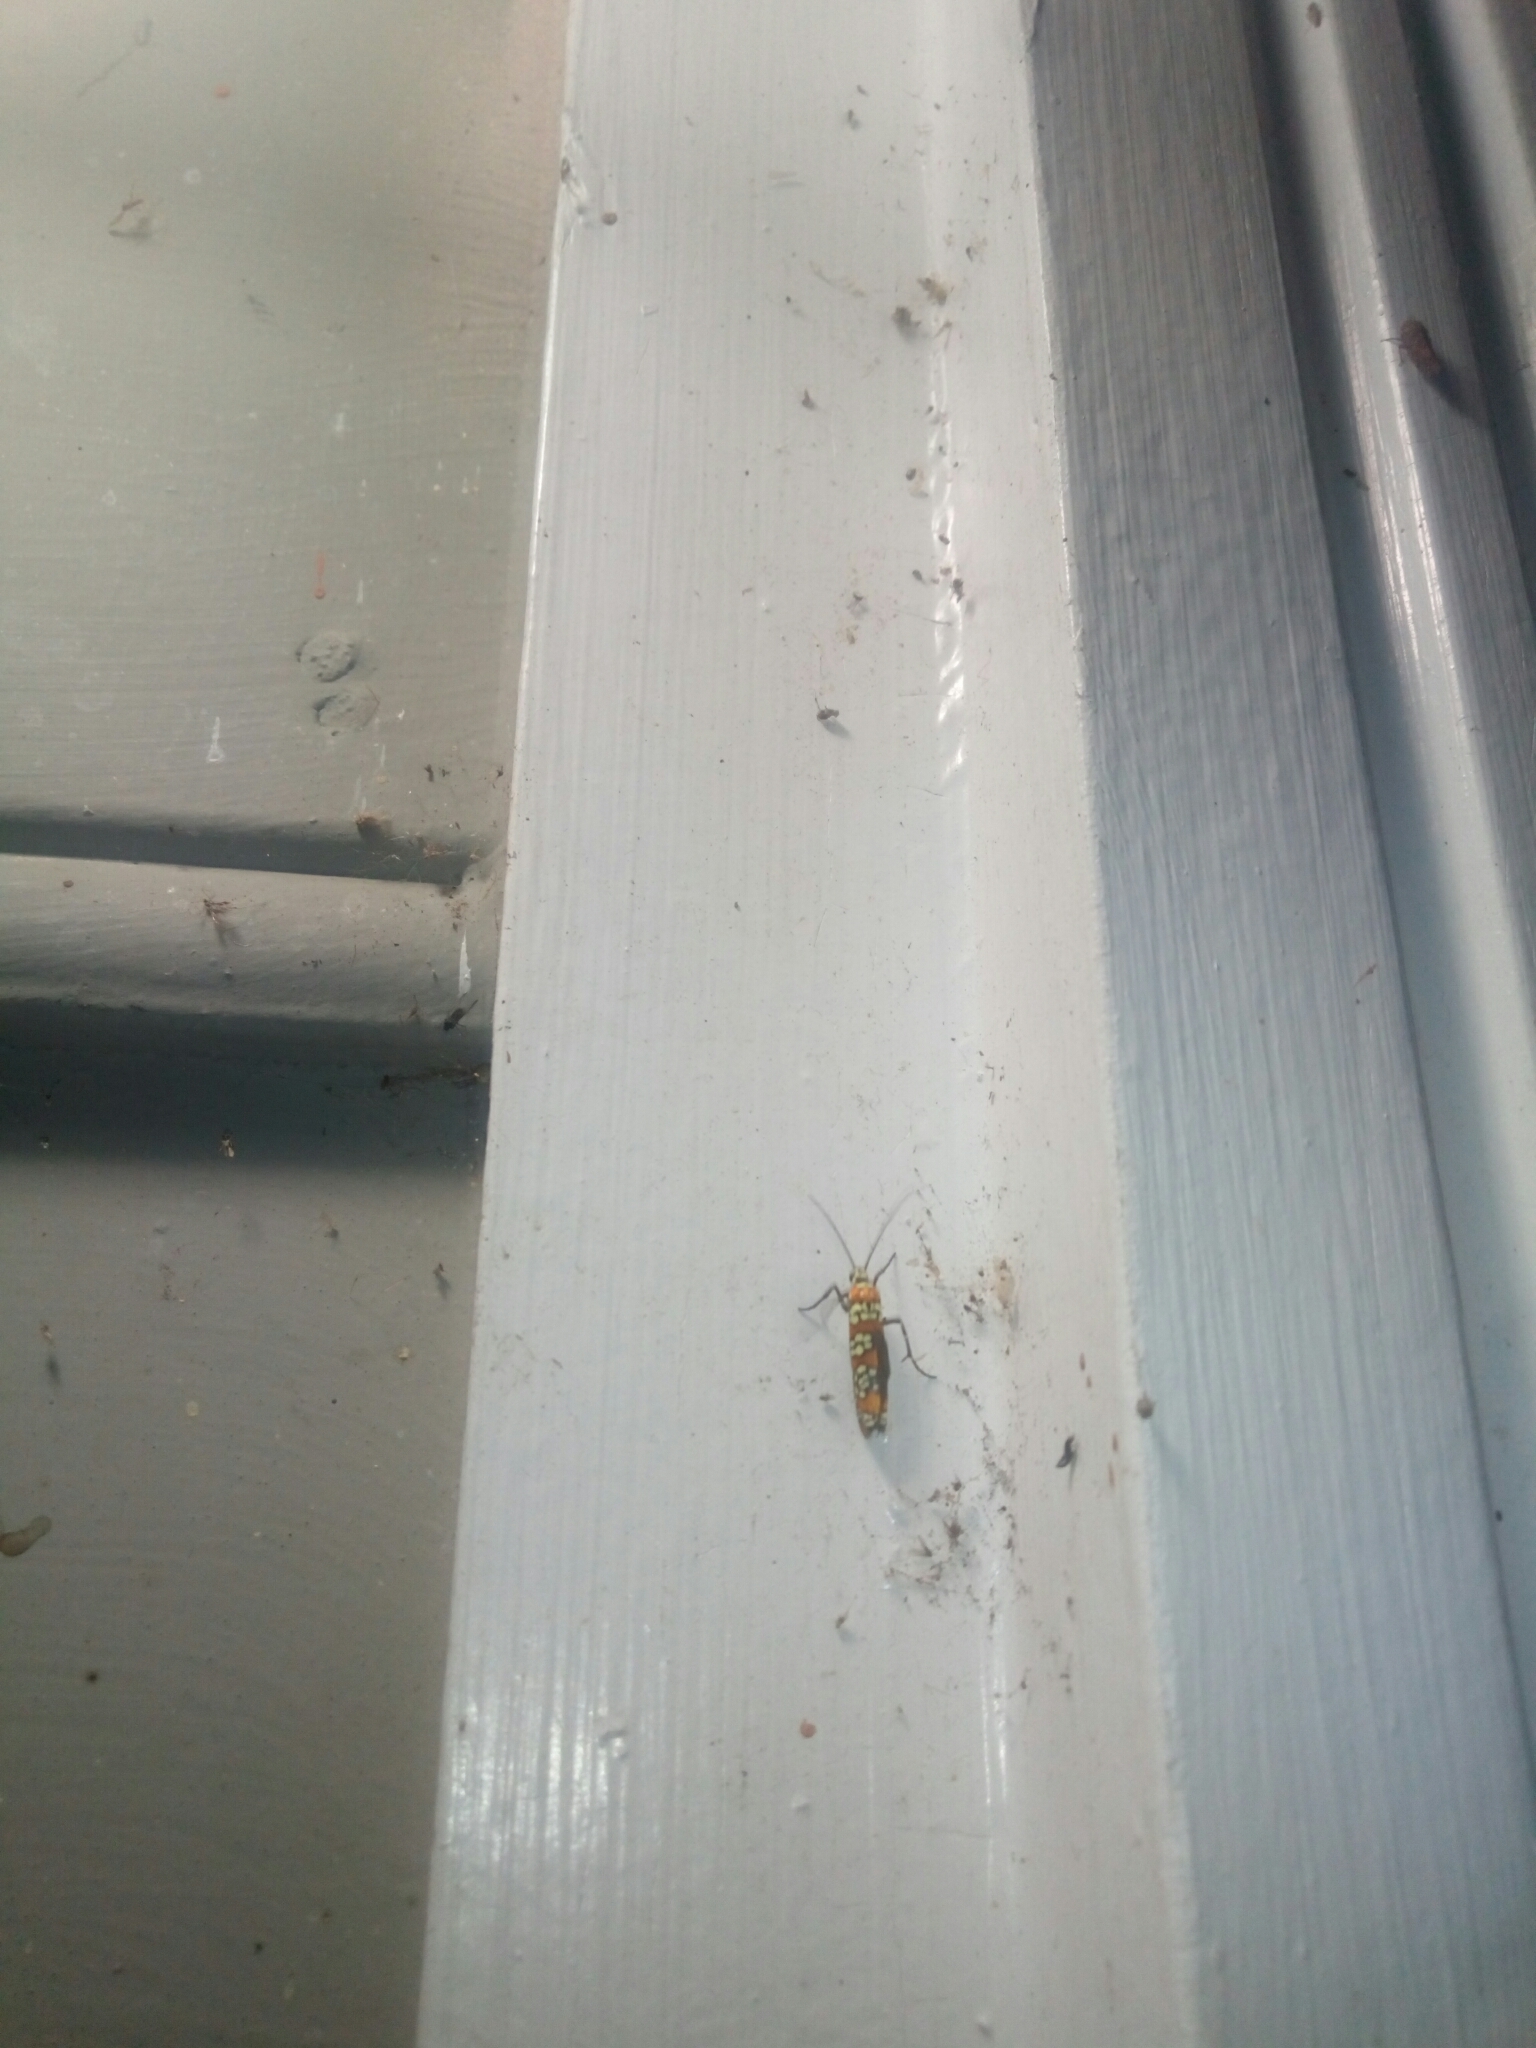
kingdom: Animalia
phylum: Arthropoda
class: Insecta
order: Lepidoptera
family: Attevidae
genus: Atteva
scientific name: Atteva punctella
